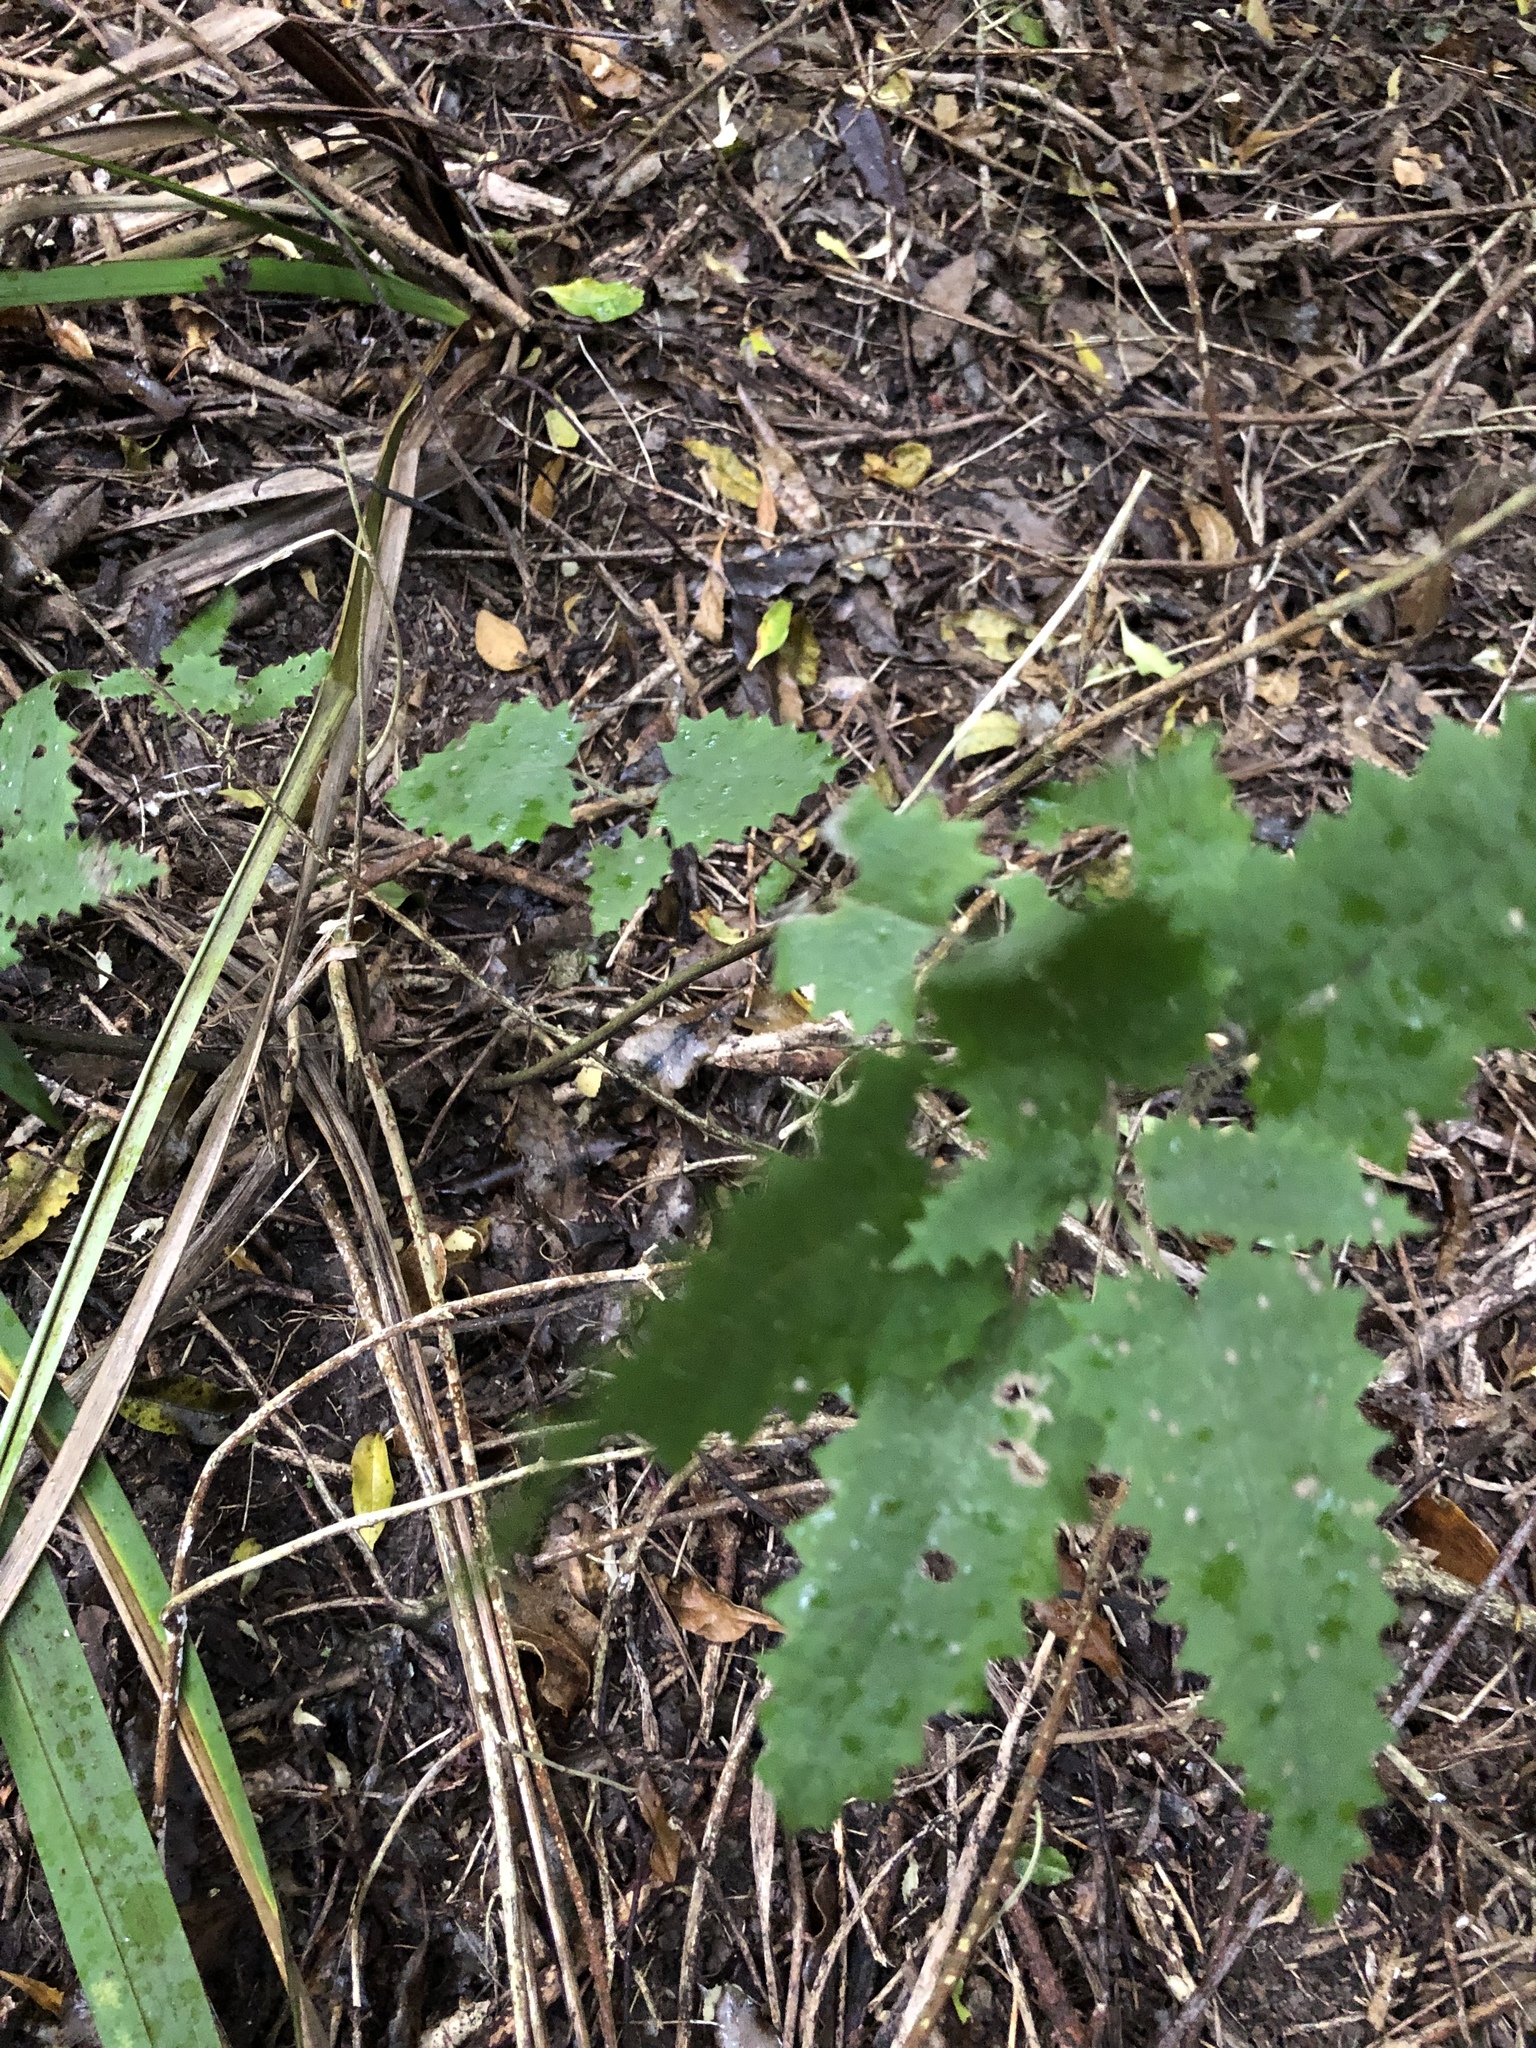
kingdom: Plantae
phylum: Tracheophyta
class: Magnoliopsida
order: Rosales
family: Urticaceae
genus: Urtica
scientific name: Urtica ferox
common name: Tree nettle
